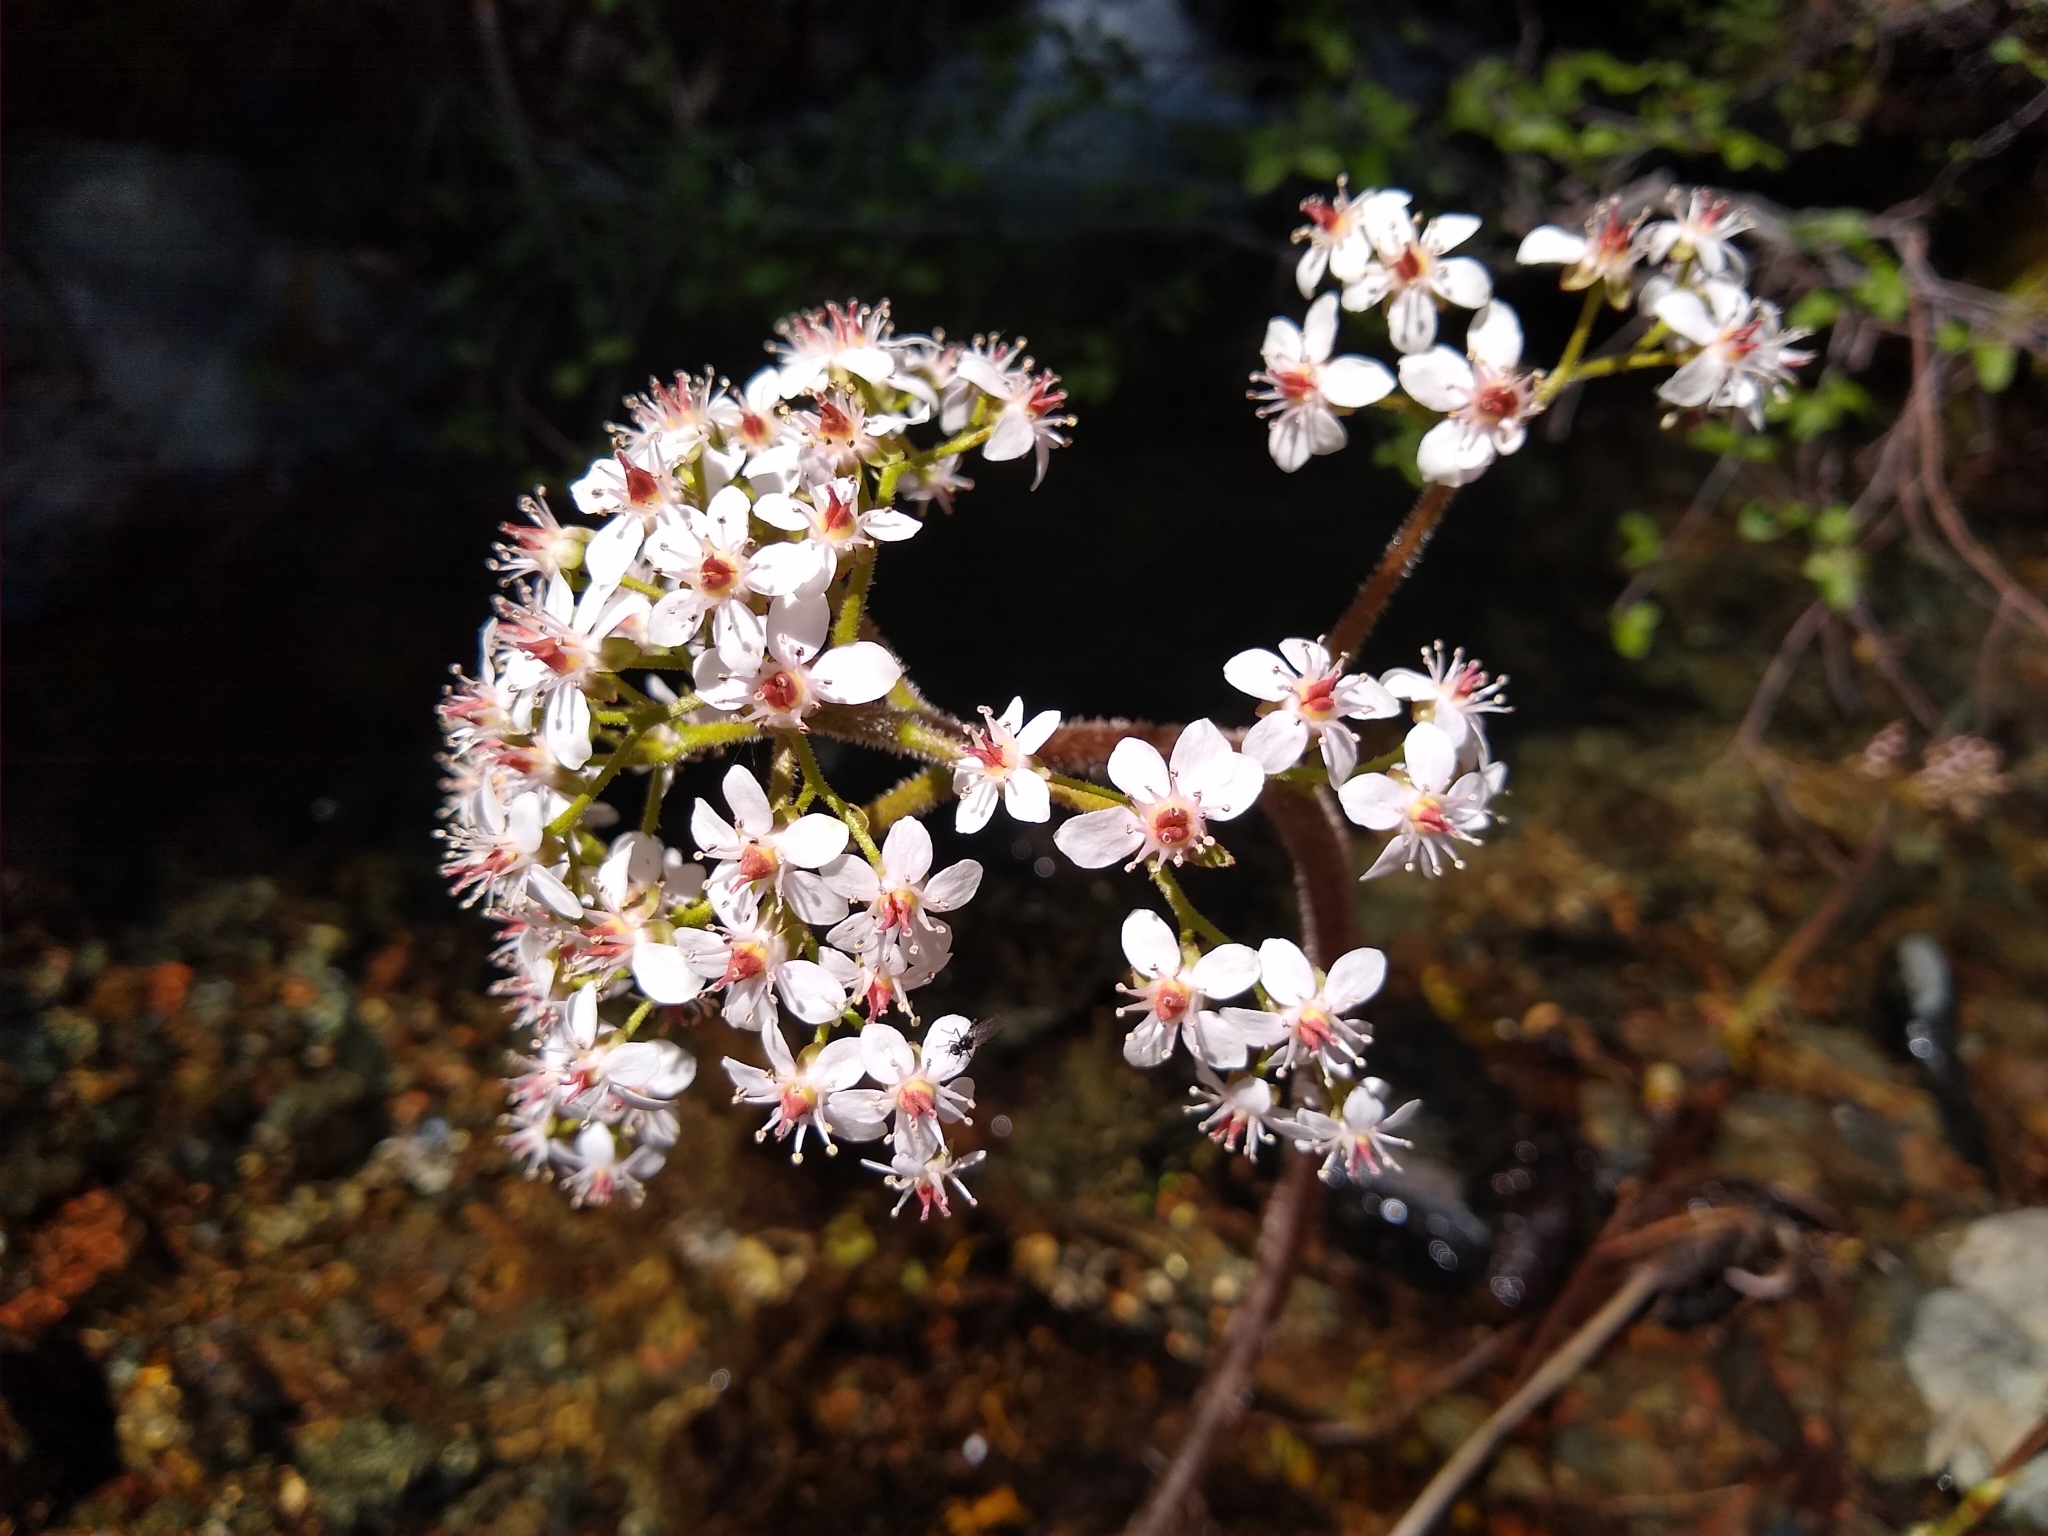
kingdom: Plantae
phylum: Tracheophyta
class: Magnoliopsida
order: Saxifragales
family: Saxifragaceae
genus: Darmera
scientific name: Darmera peltata
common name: Indian-rhubarb
